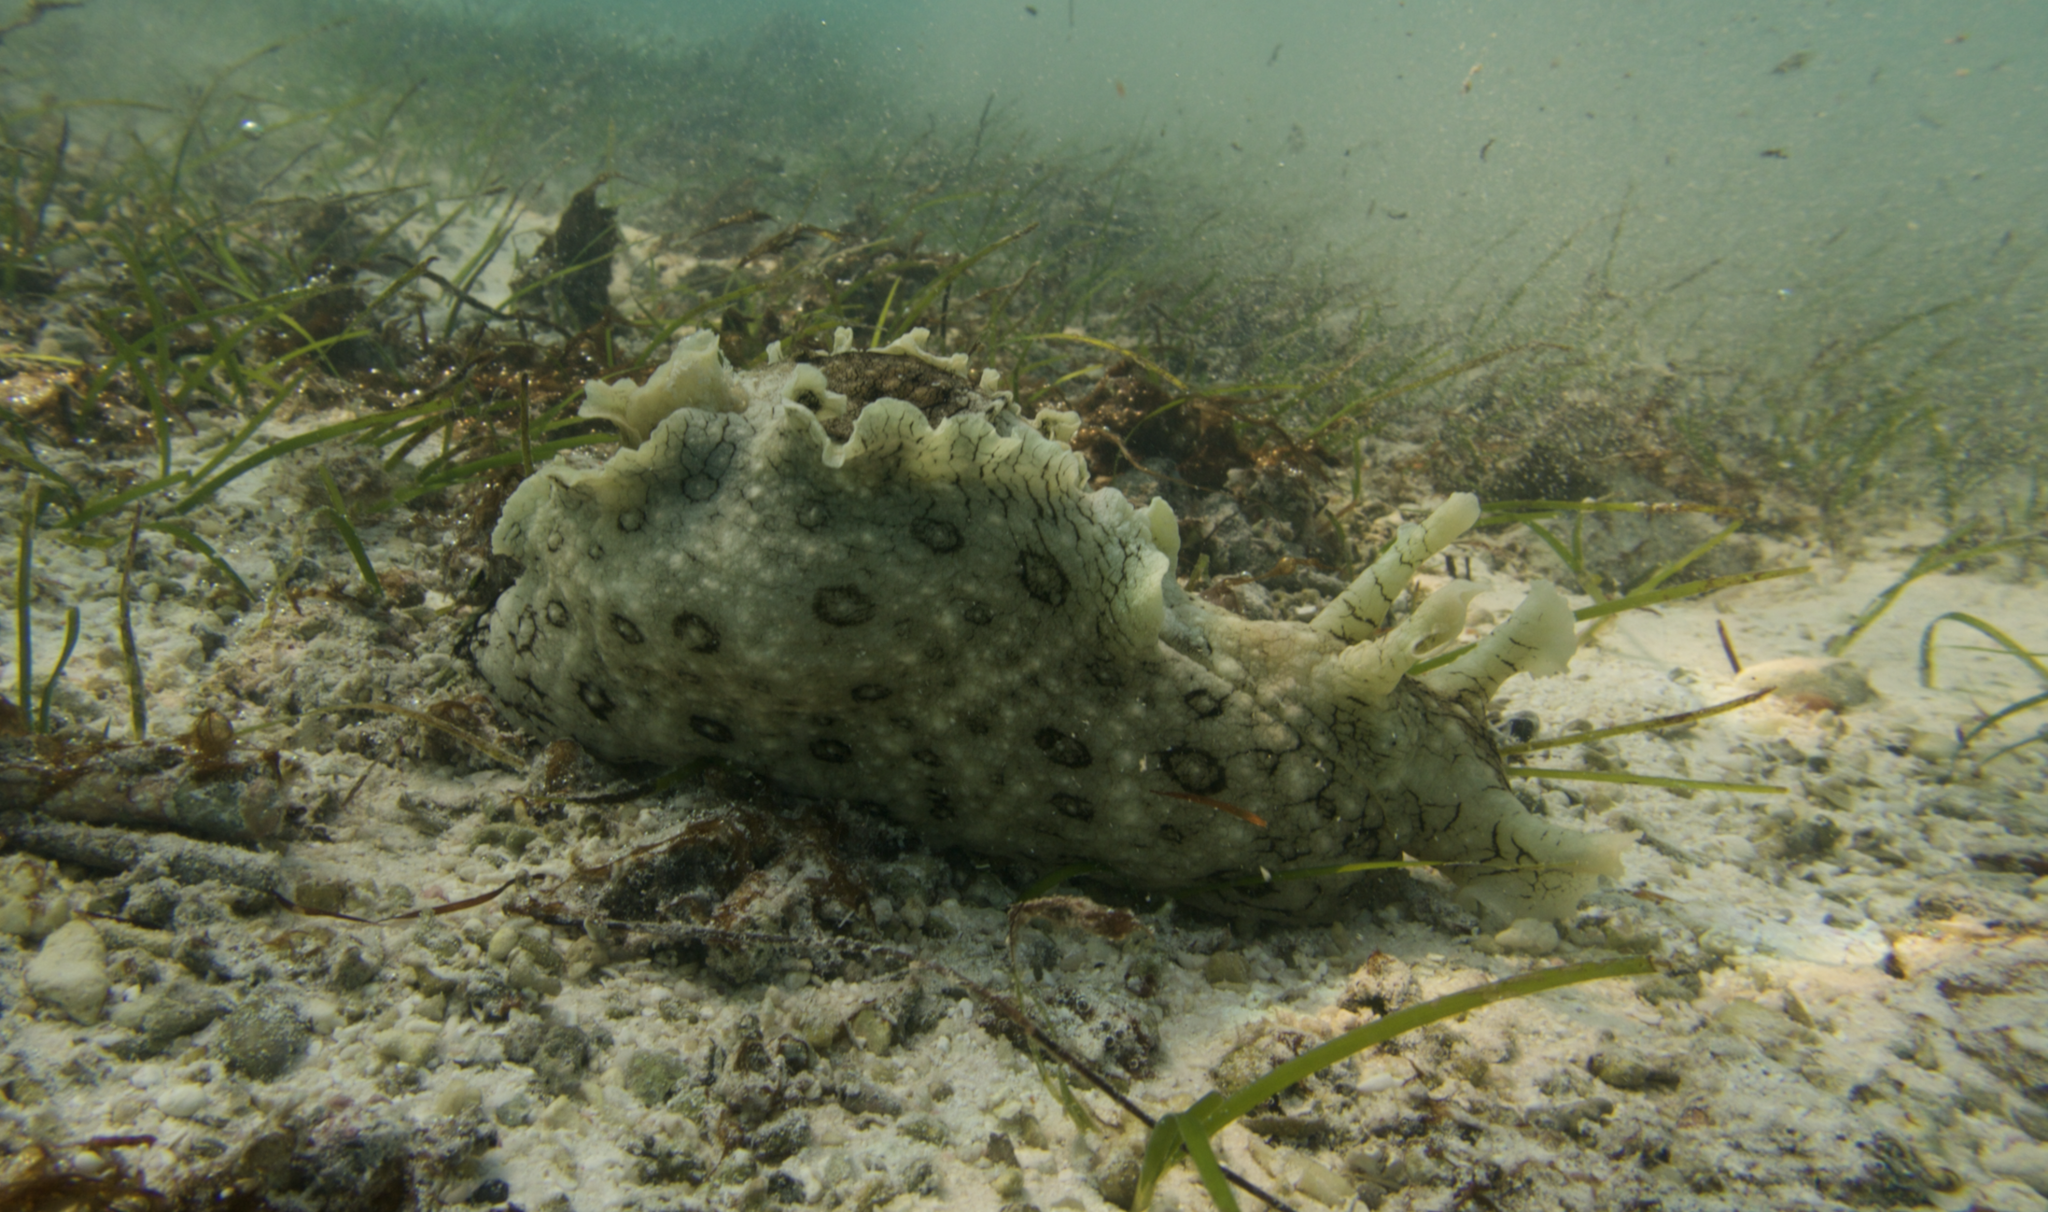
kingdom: Animalia
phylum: Mollusca
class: Gastropoda
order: Aplysiida
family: Aplysiidae
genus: Aplysia
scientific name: Aplysia argus
